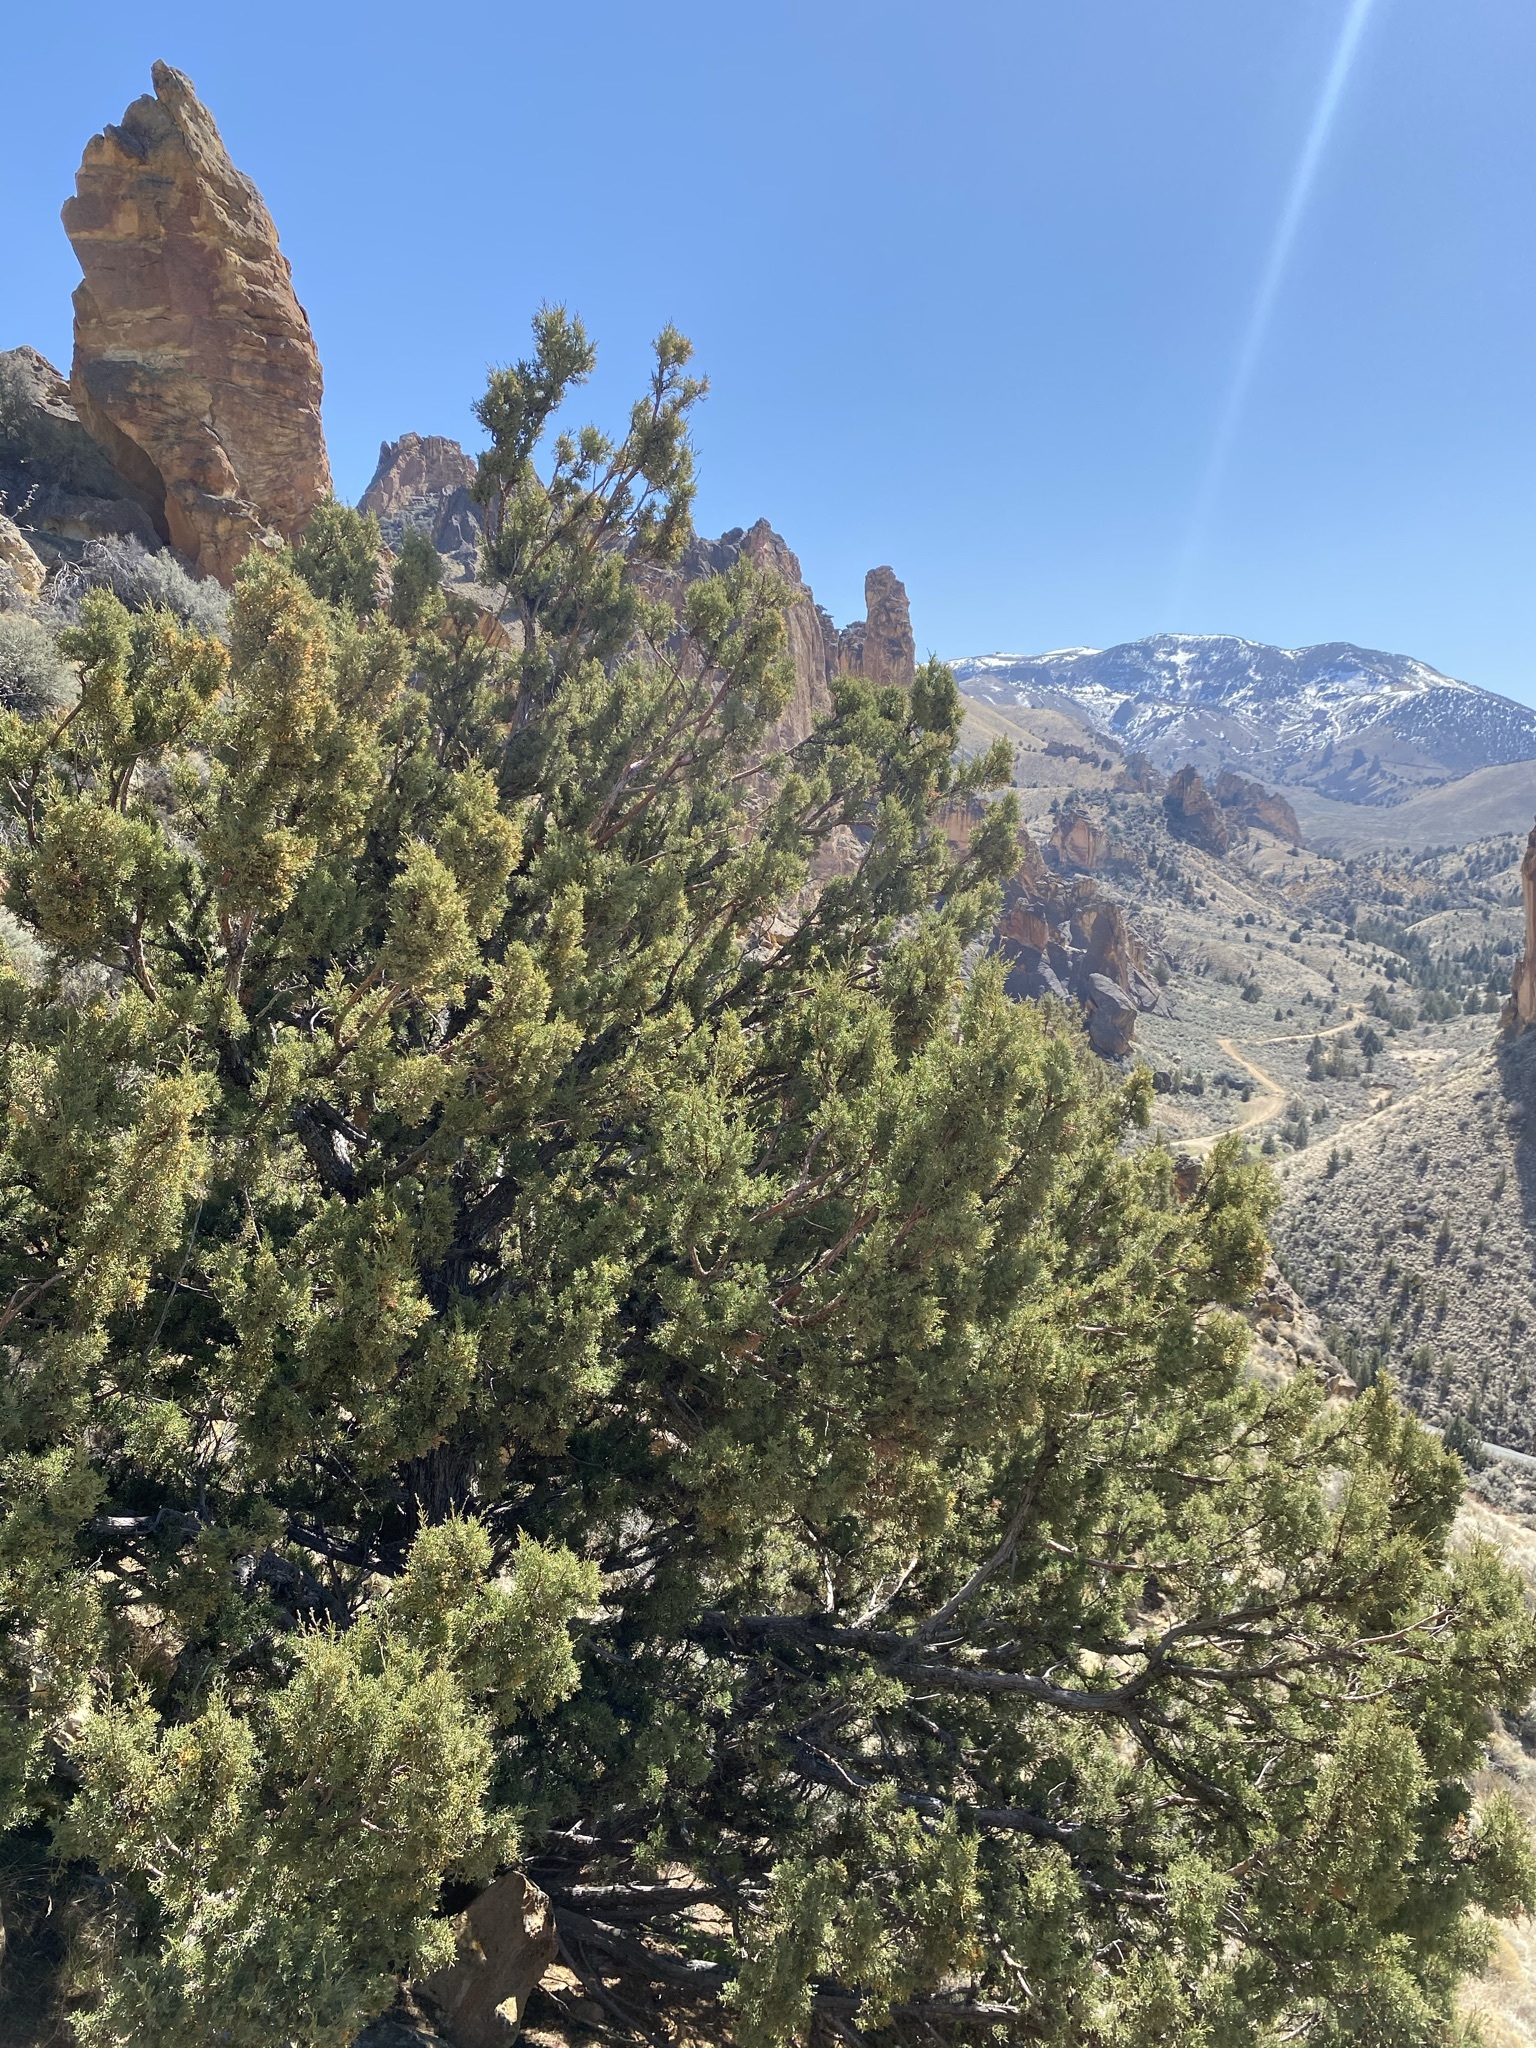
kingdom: Plantae
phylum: Tracheophyta
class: Pinopsida
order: Pinales
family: Cupressaceae
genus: Juniperus
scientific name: Juniperus occidentalis
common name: Western juniper
